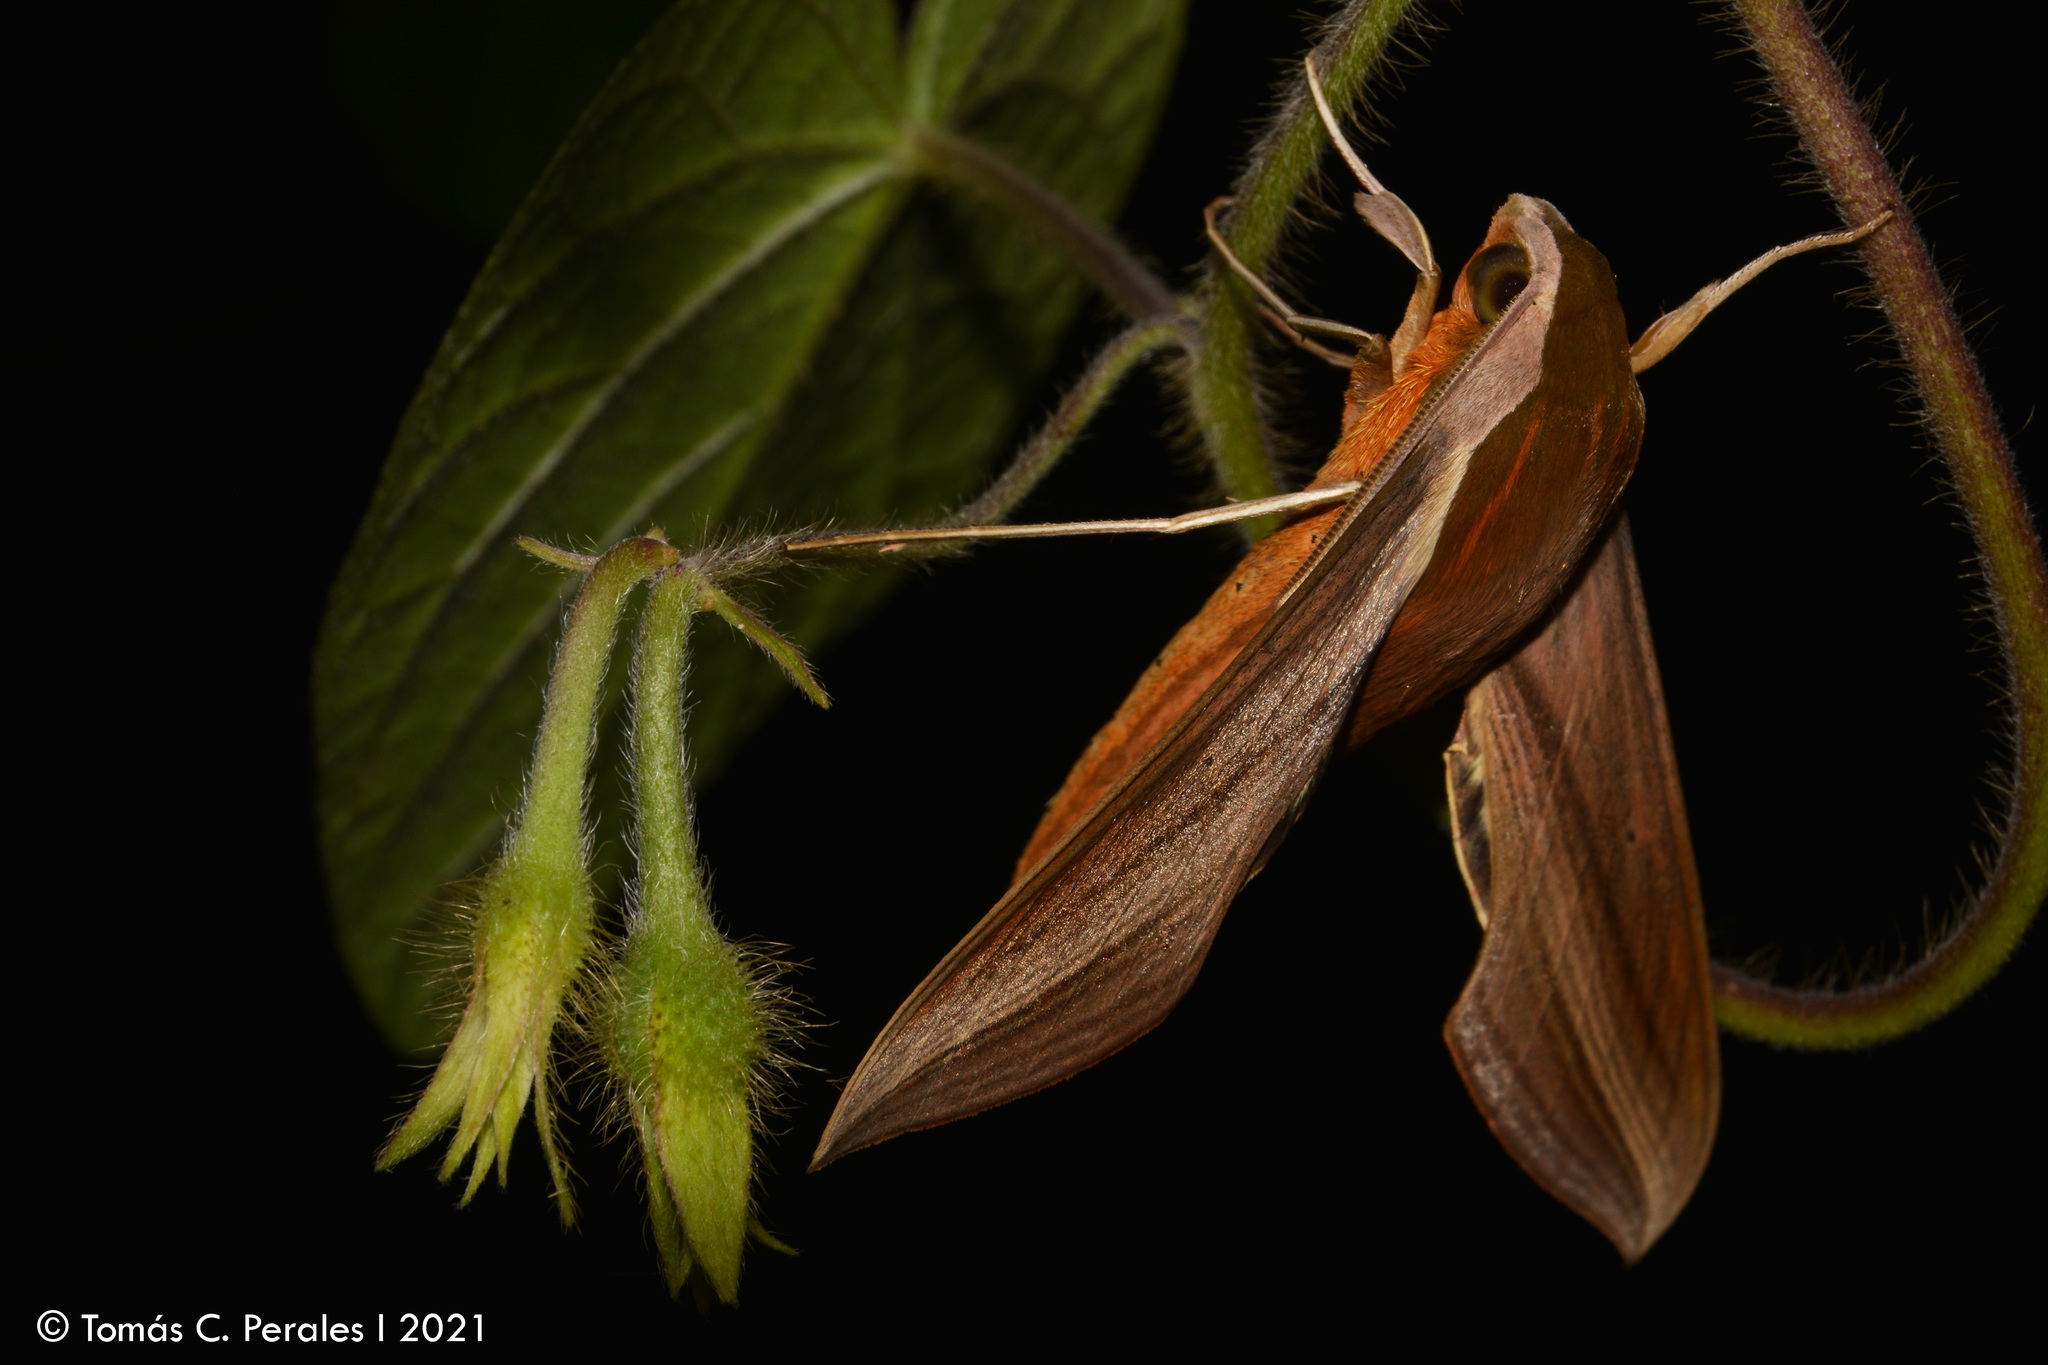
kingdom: Animalia
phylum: Arthropoda
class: Insecta
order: Lepidoptera
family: Sphingidae
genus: Xylophanes
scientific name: Xylophanes tersa
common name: Tersa sphinx
